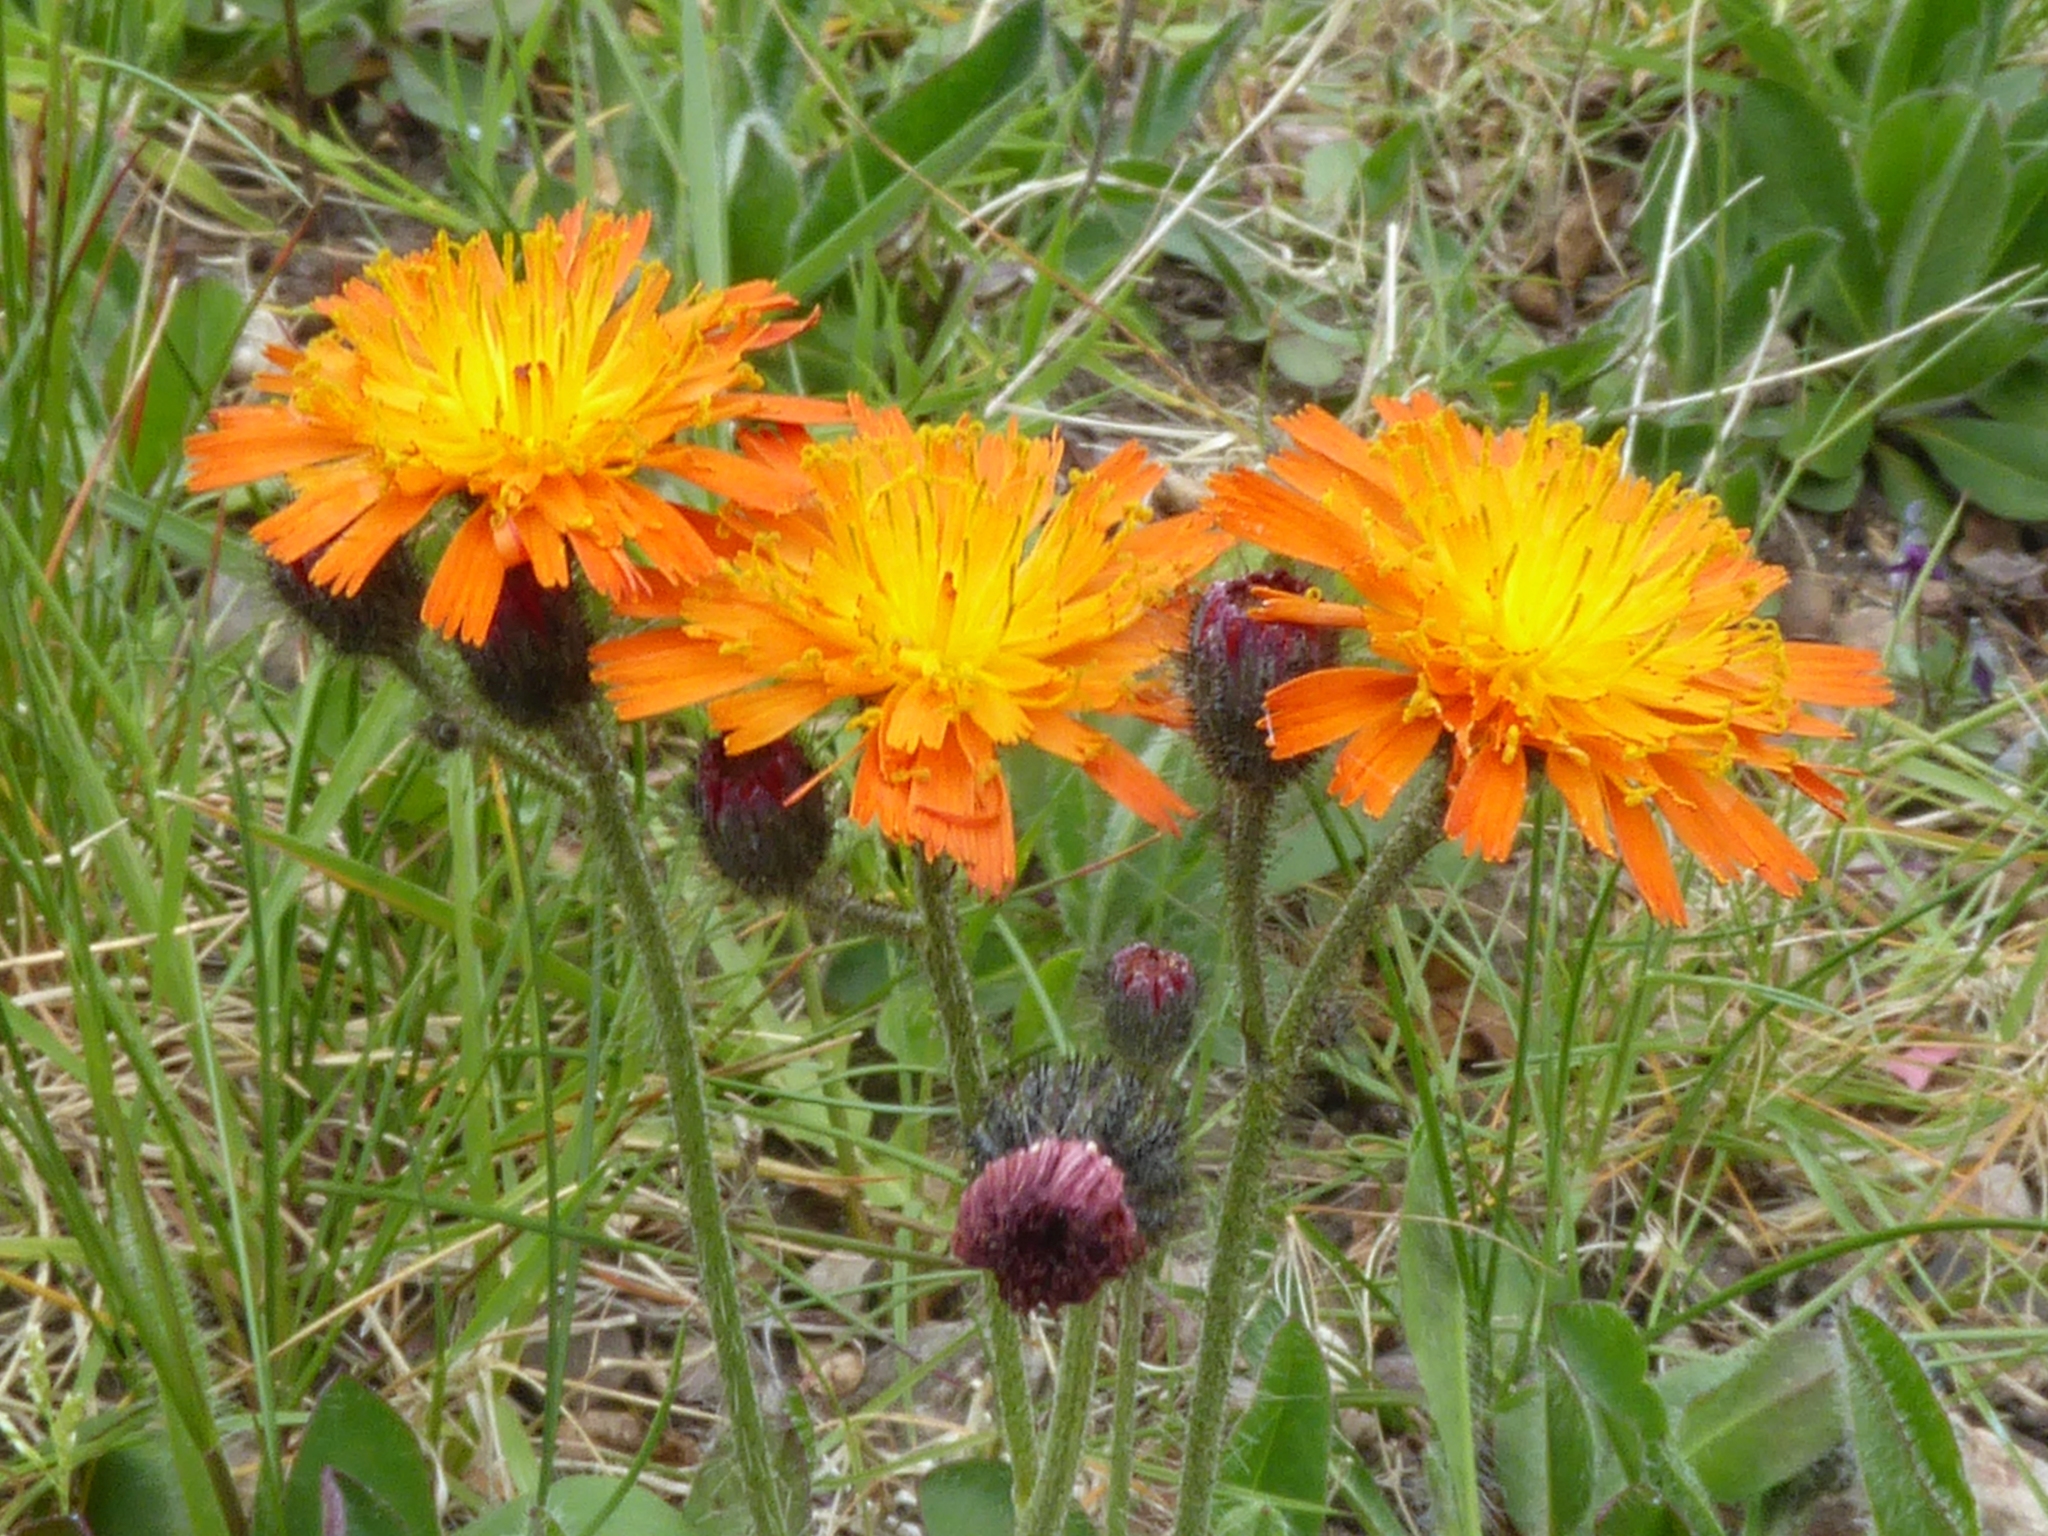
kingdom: Plantae
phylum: Tracheophyta
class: Magnoliopsida
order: Asterales
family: Asteraceae
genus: Pilosella
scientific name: Pilosella aurantiaca
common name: Fox-and-cubs
